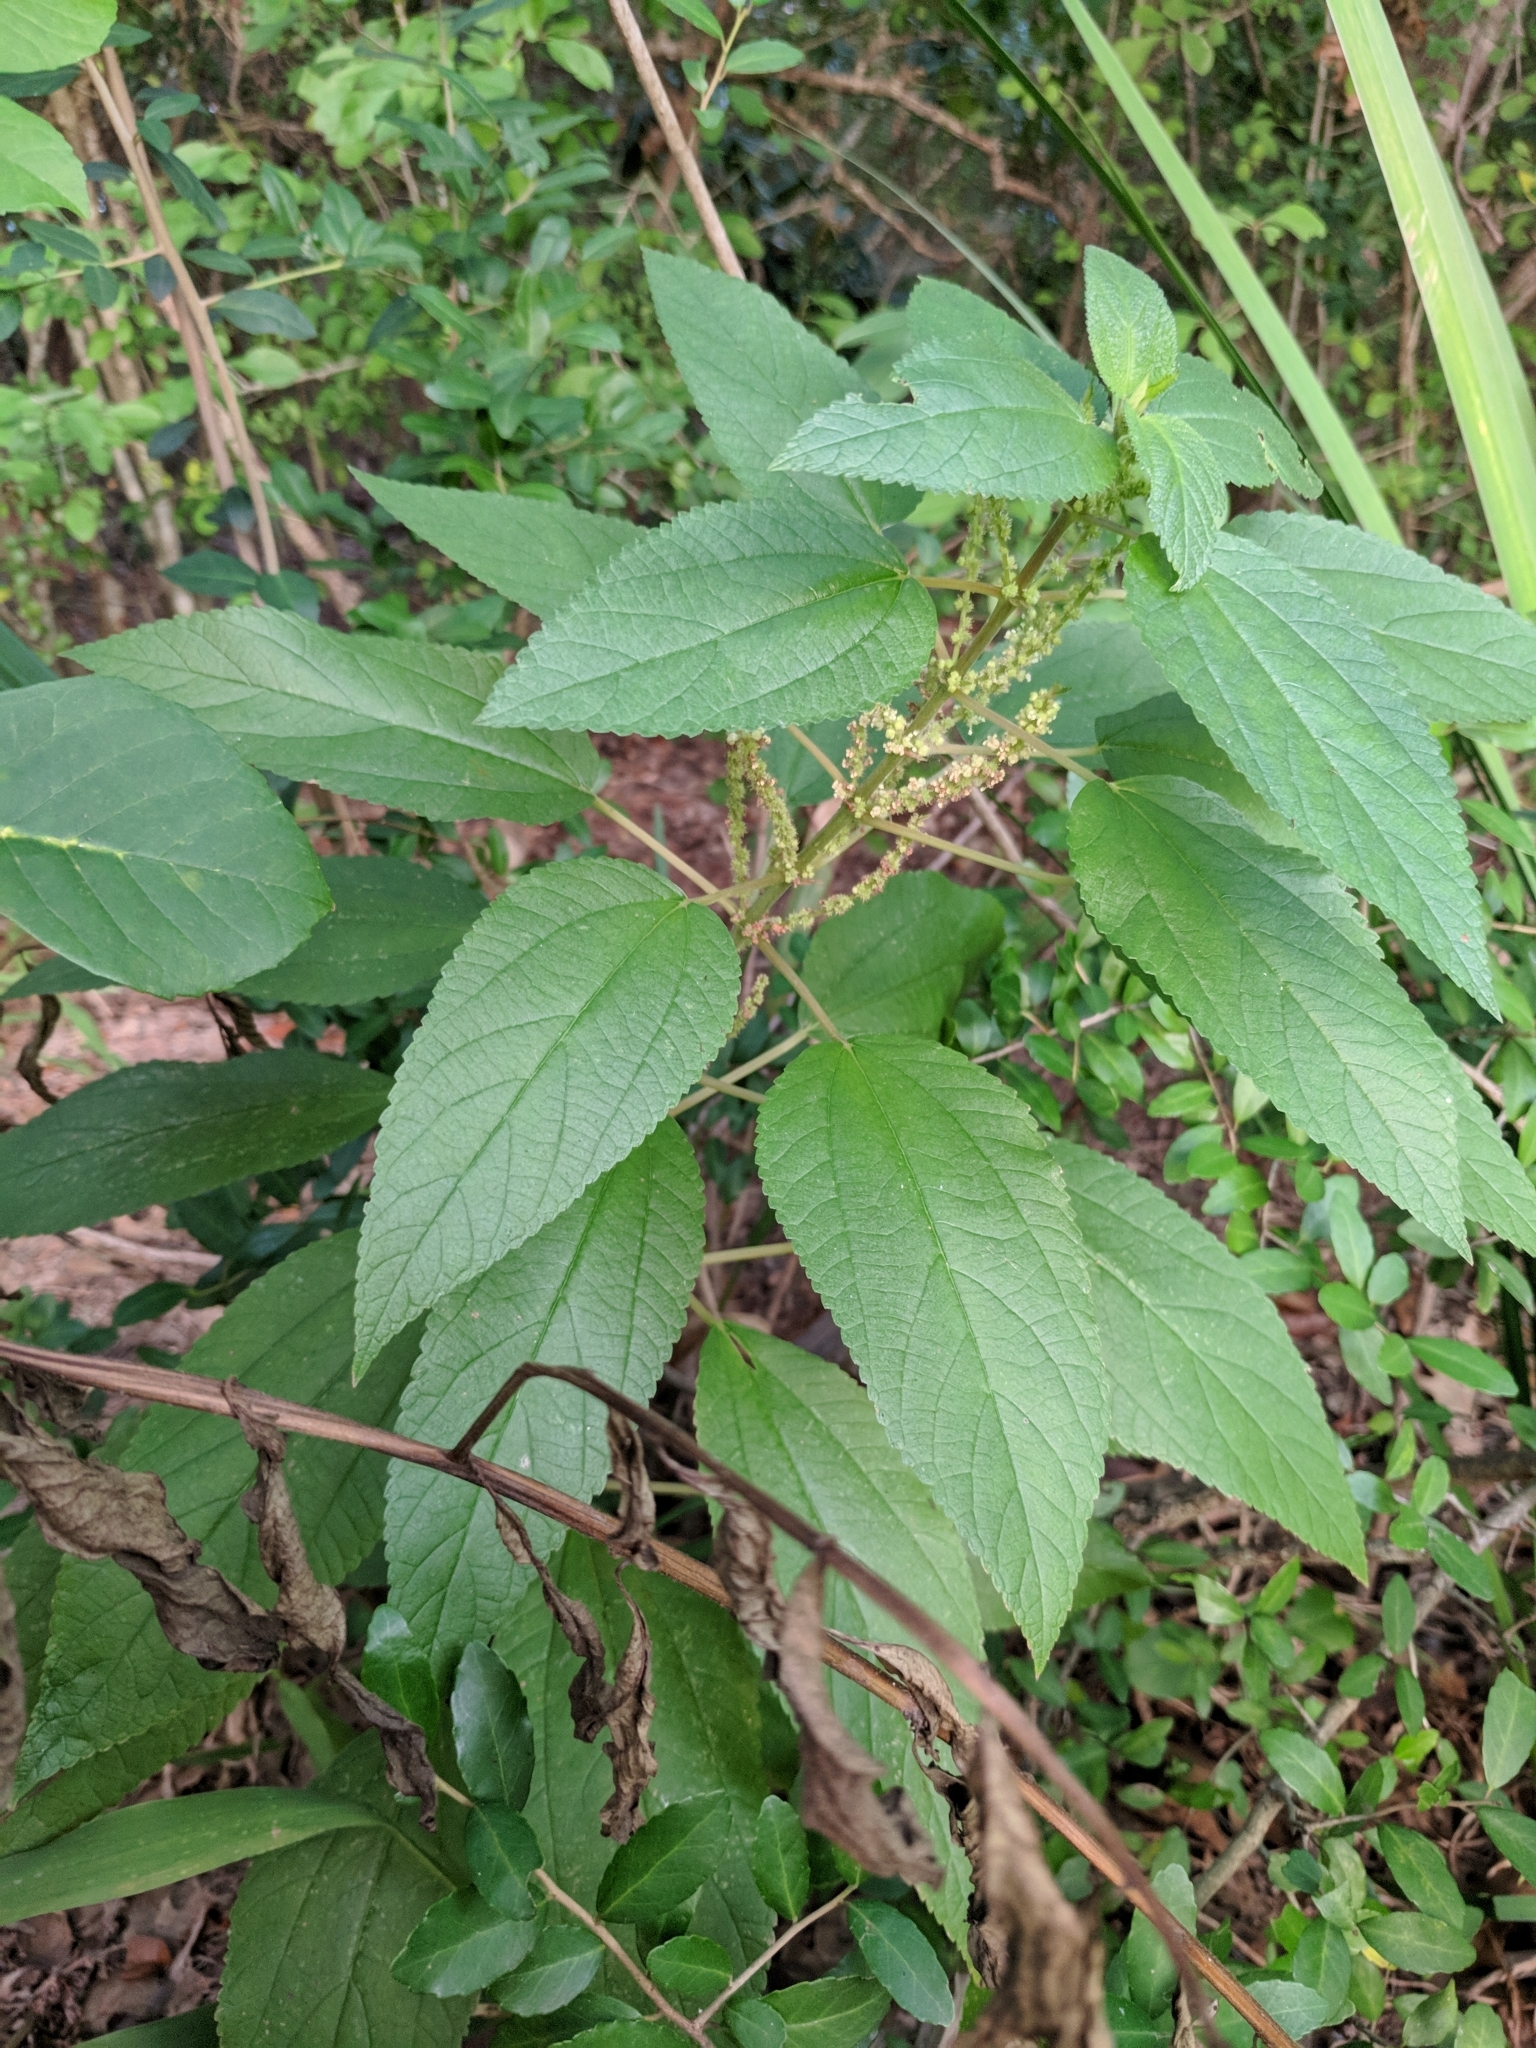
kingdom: Plantae
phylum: Tracheophyta
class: Magnoliopsida
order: Rosales
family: Urticaceae
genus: Boehmeria
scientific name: Boehmeria cylindrica
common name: Bog-hemp
